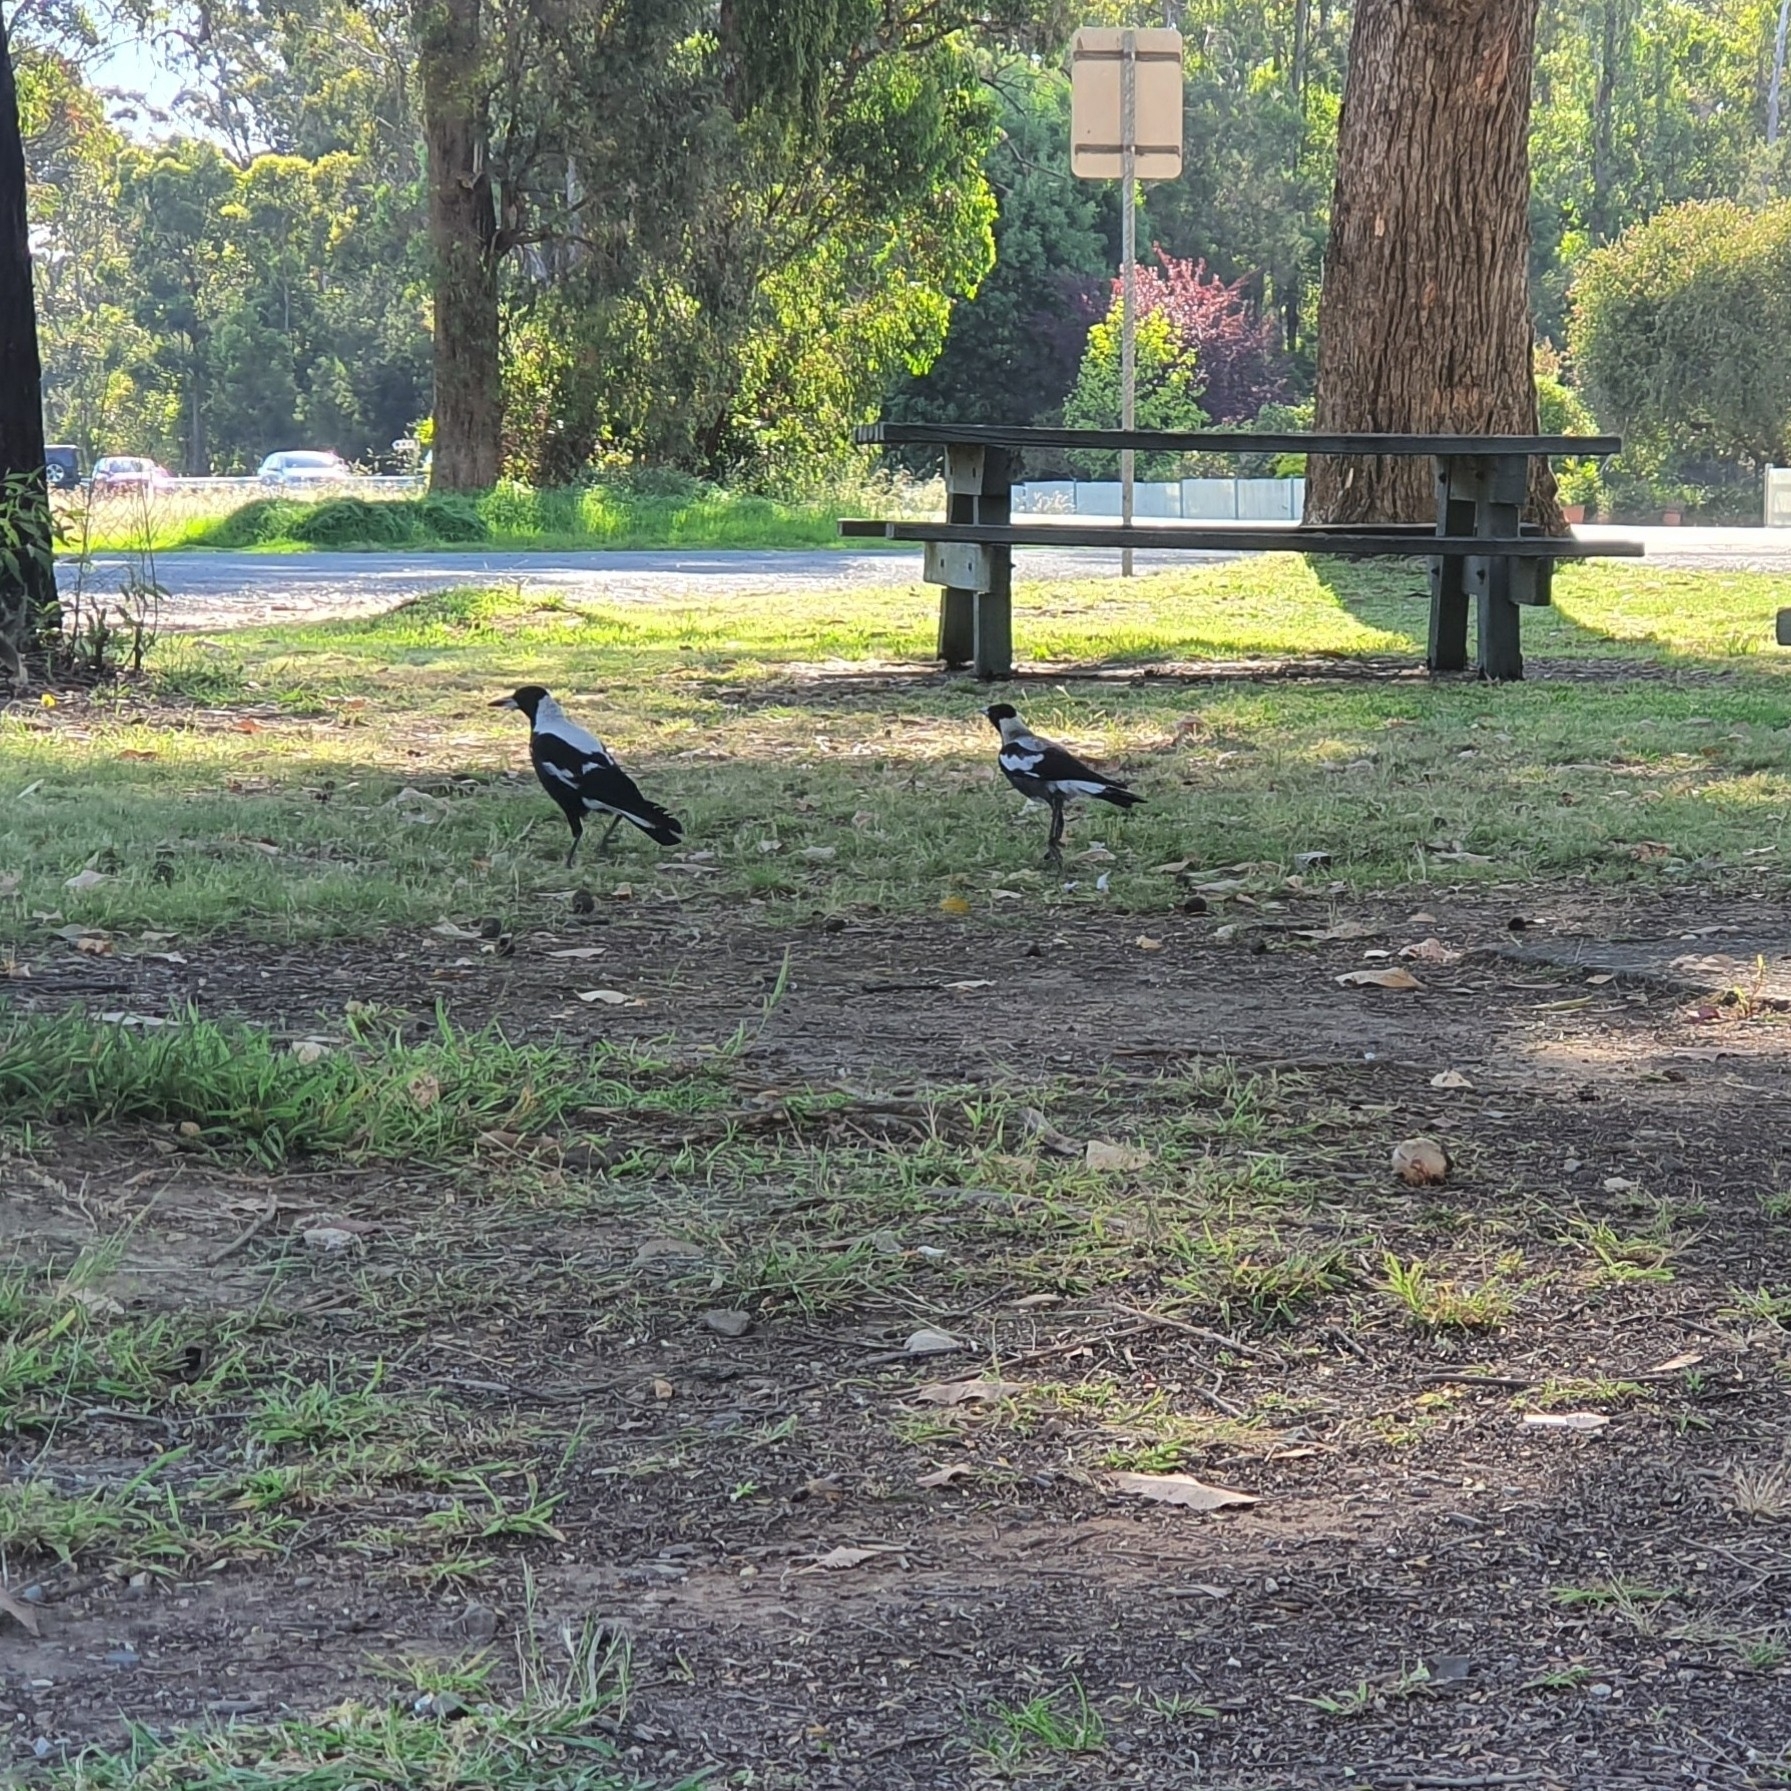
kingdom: Animalia
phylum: Chordata
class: Aves
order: Passeriformes
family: Cracticidae
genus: Gymnorhina
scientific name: Gymnorhina tibicen
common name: Australian magpie
